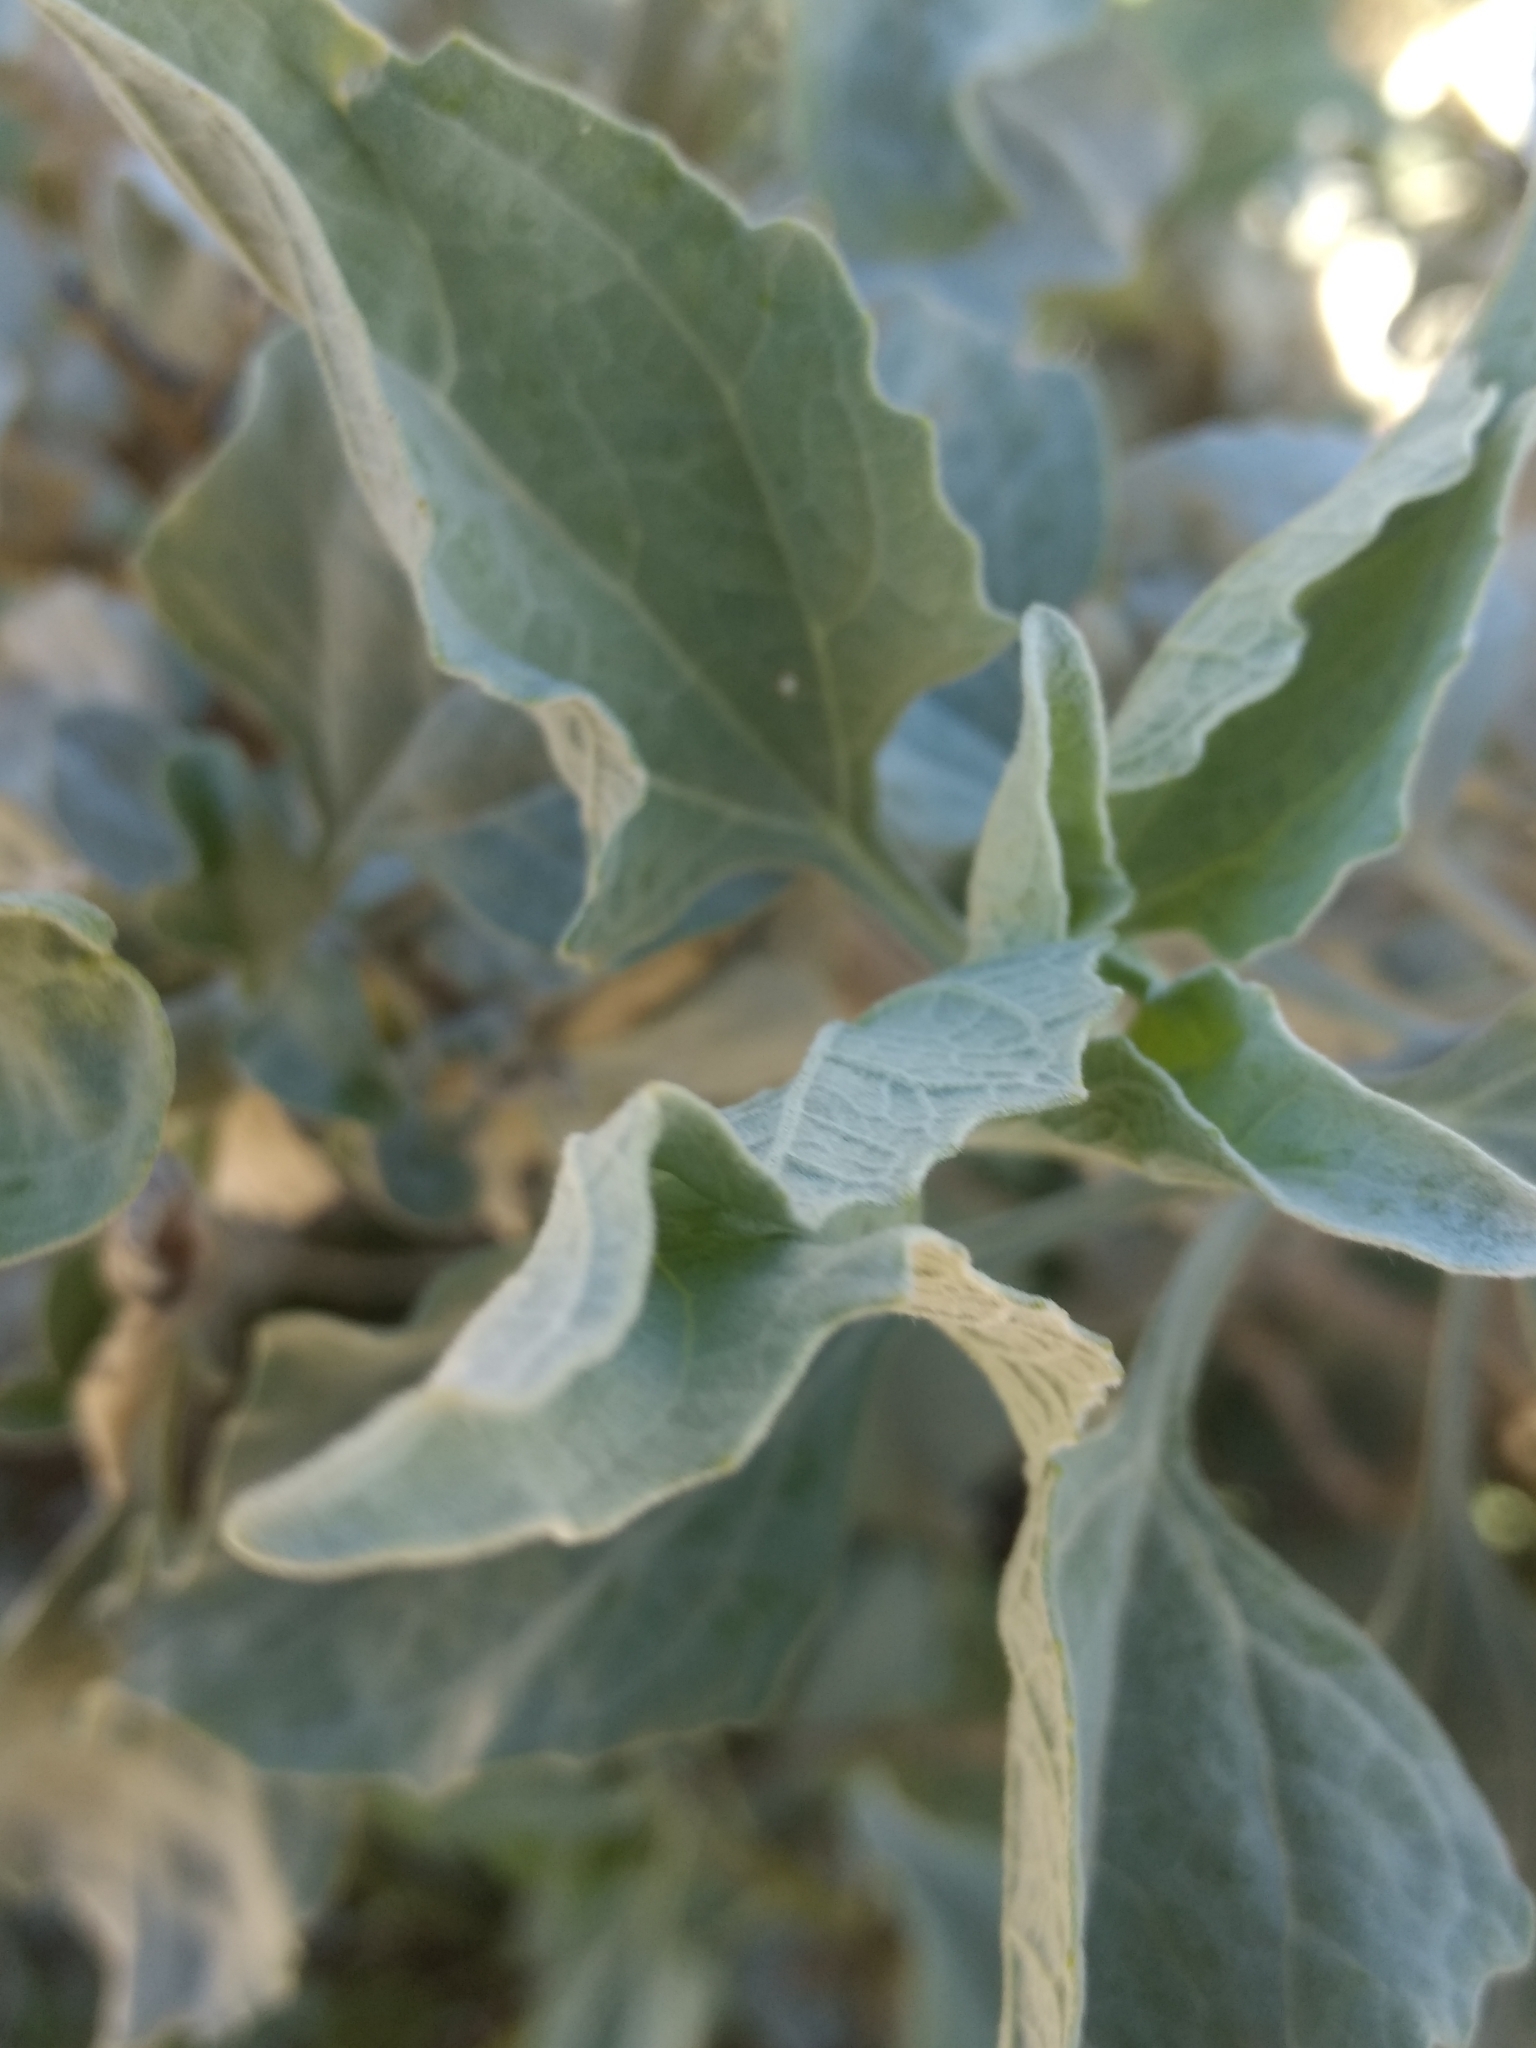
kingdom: Plantae
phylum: Tracheophyta
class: Magnoliopsida
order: Asterales
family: Asteraceae
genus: Encelia
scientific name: Encelia farinosa
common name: Brittlebush
